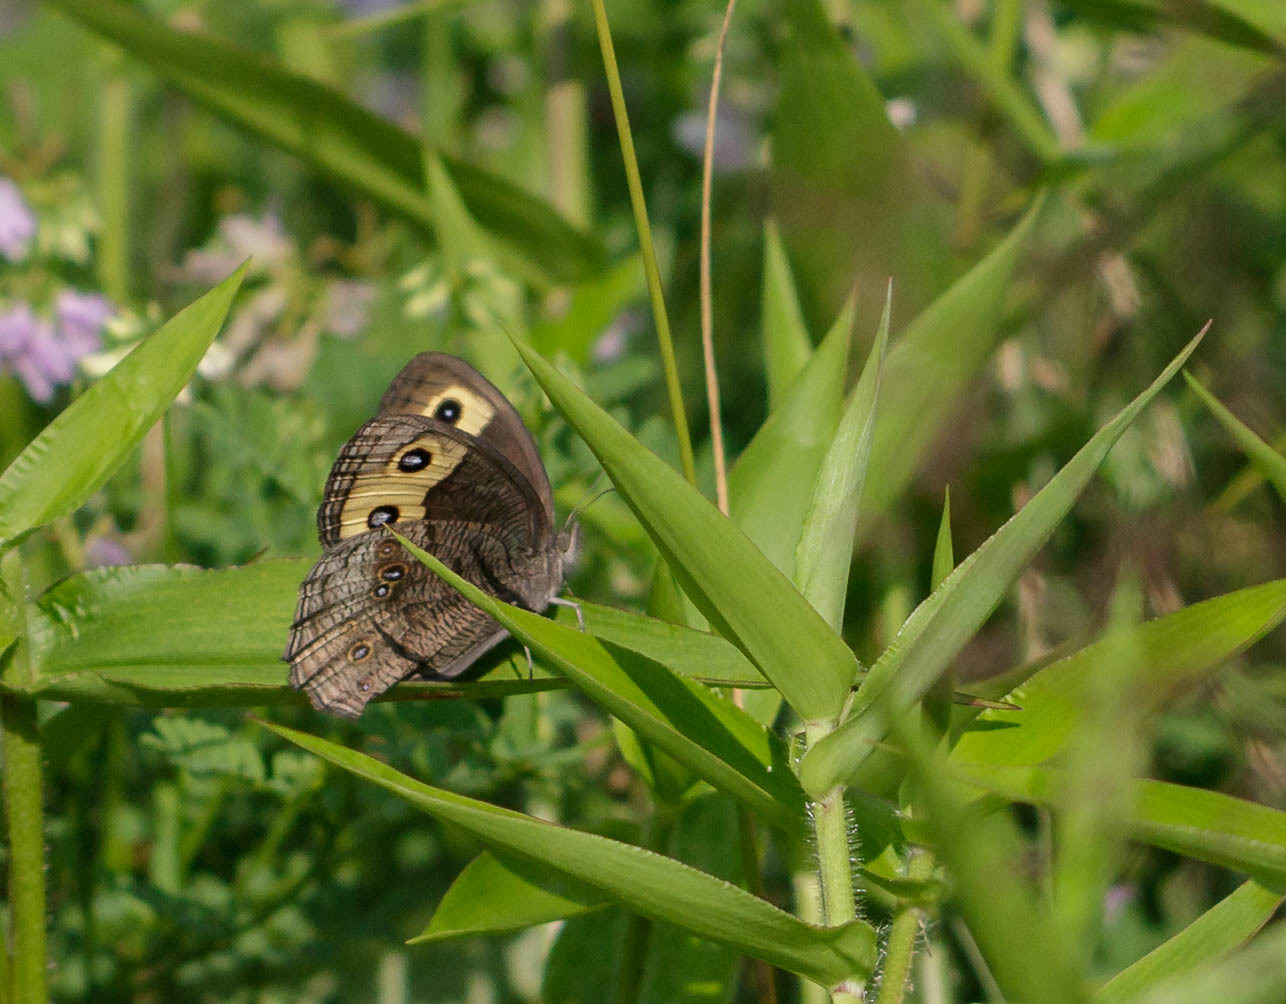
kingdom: Animalia
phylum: Arthropoda
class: Insecta
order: Lepidoptera
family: Nymphalidae
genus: Cercyonis
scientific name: Cercyonis pegala
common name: Common wood-nymph
